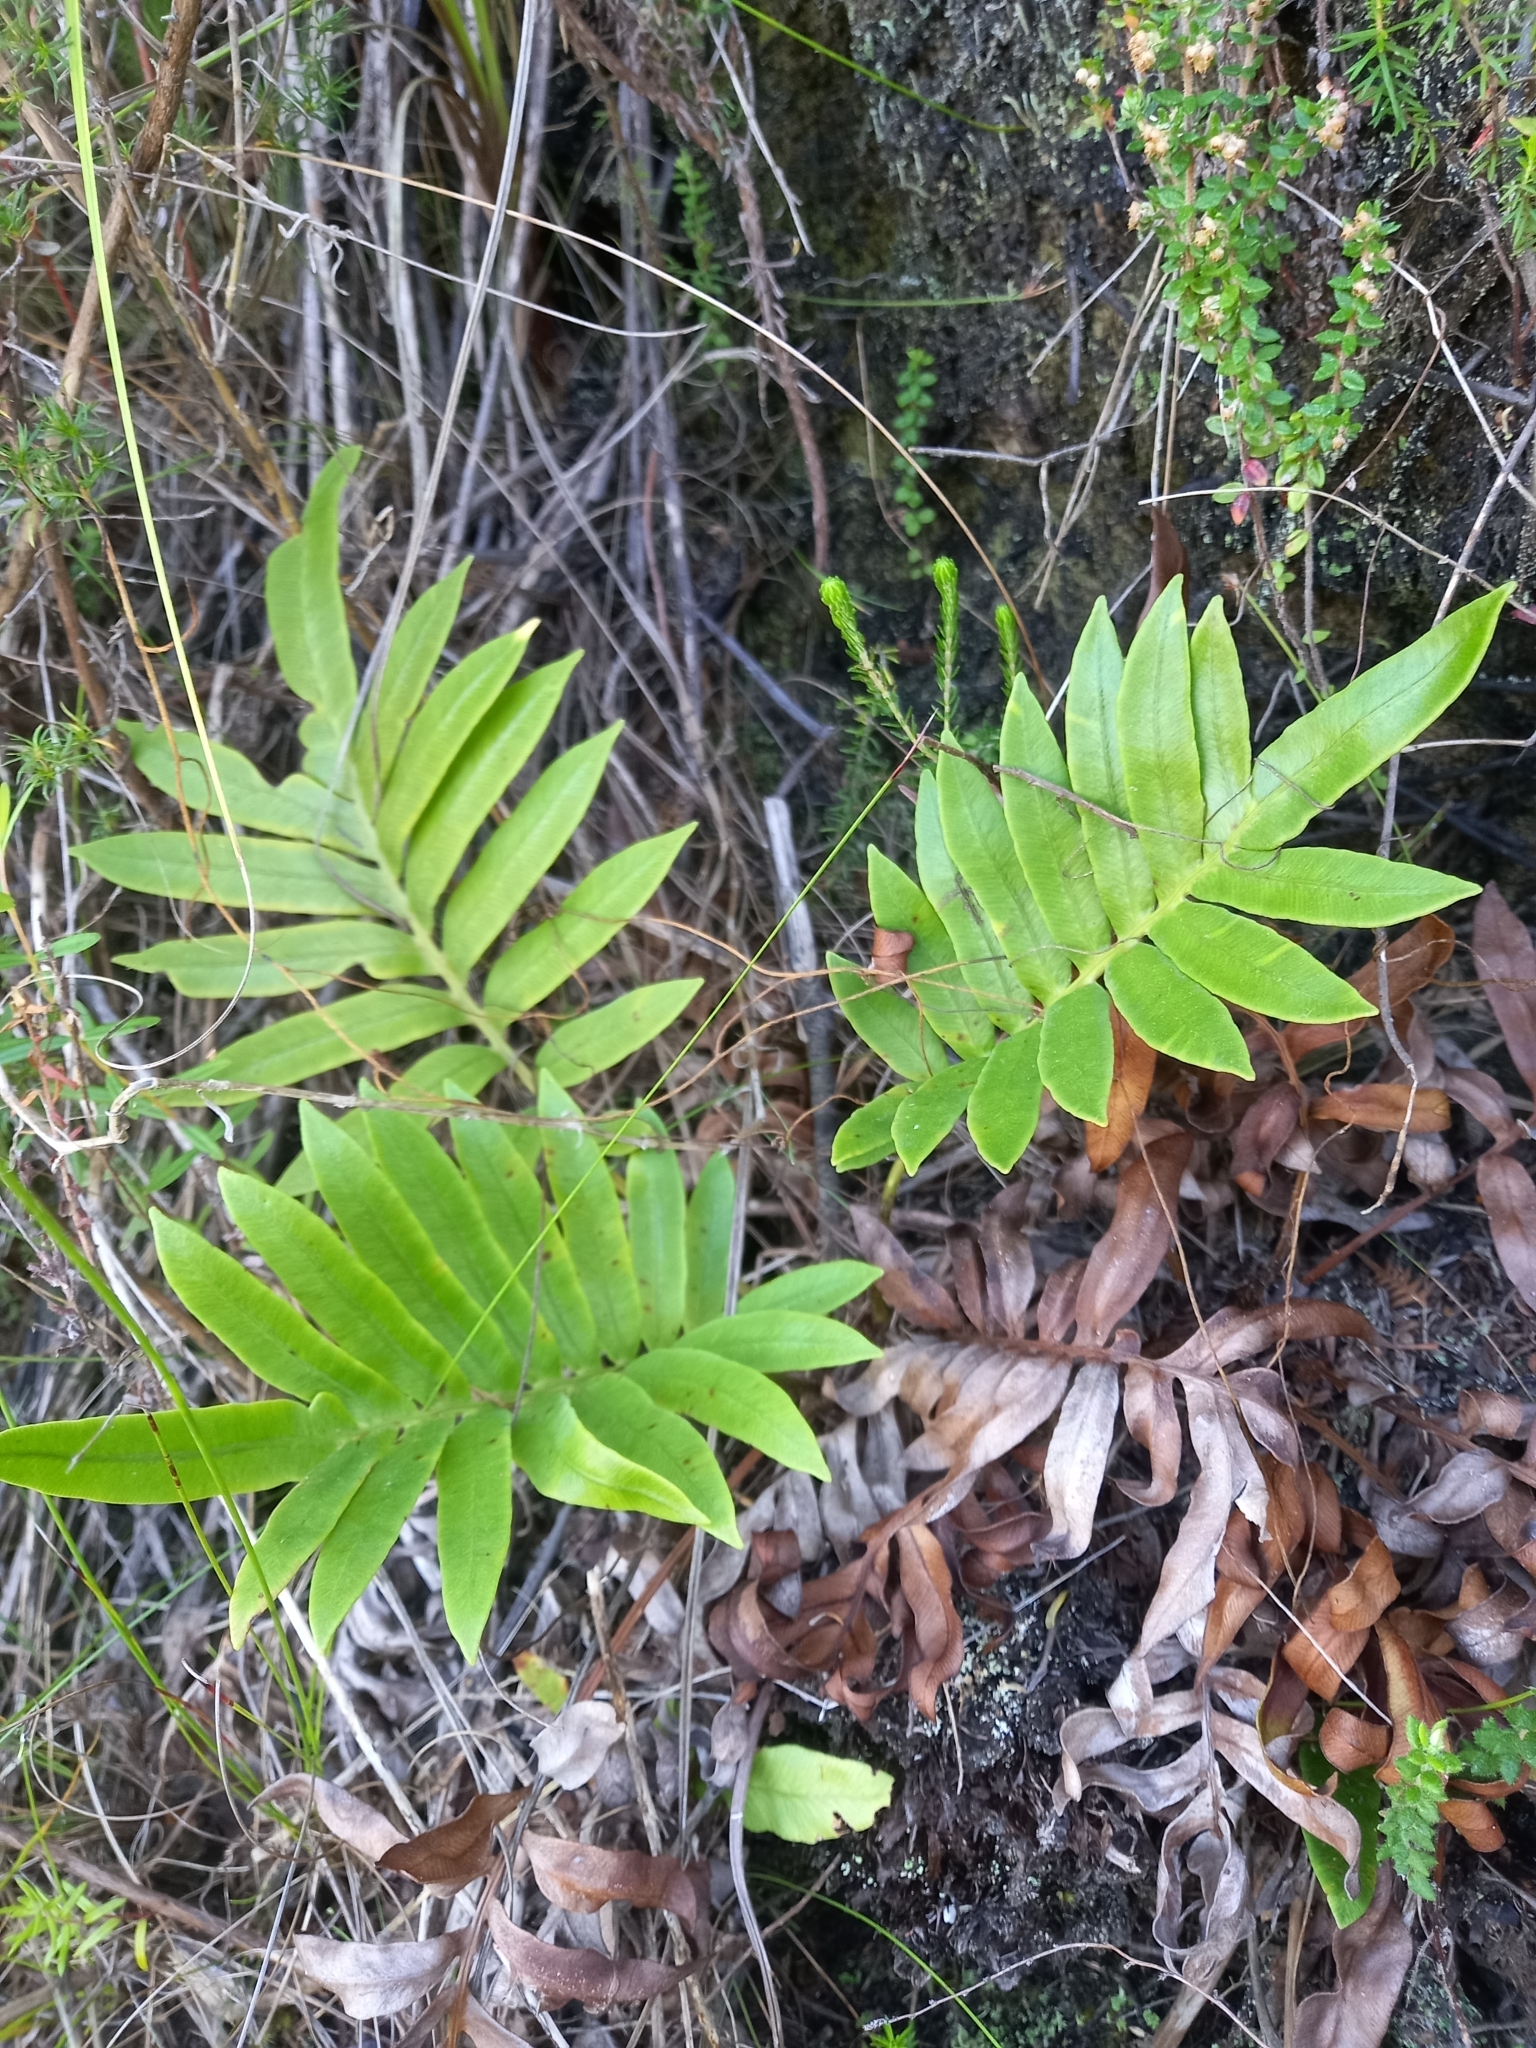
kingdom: Plantae
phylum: Tracheophyta
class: Polypodiopsida
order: Polypodiales
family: Blechnaceae
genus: Lomariocycas
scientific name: Lomariocycas tabularis
